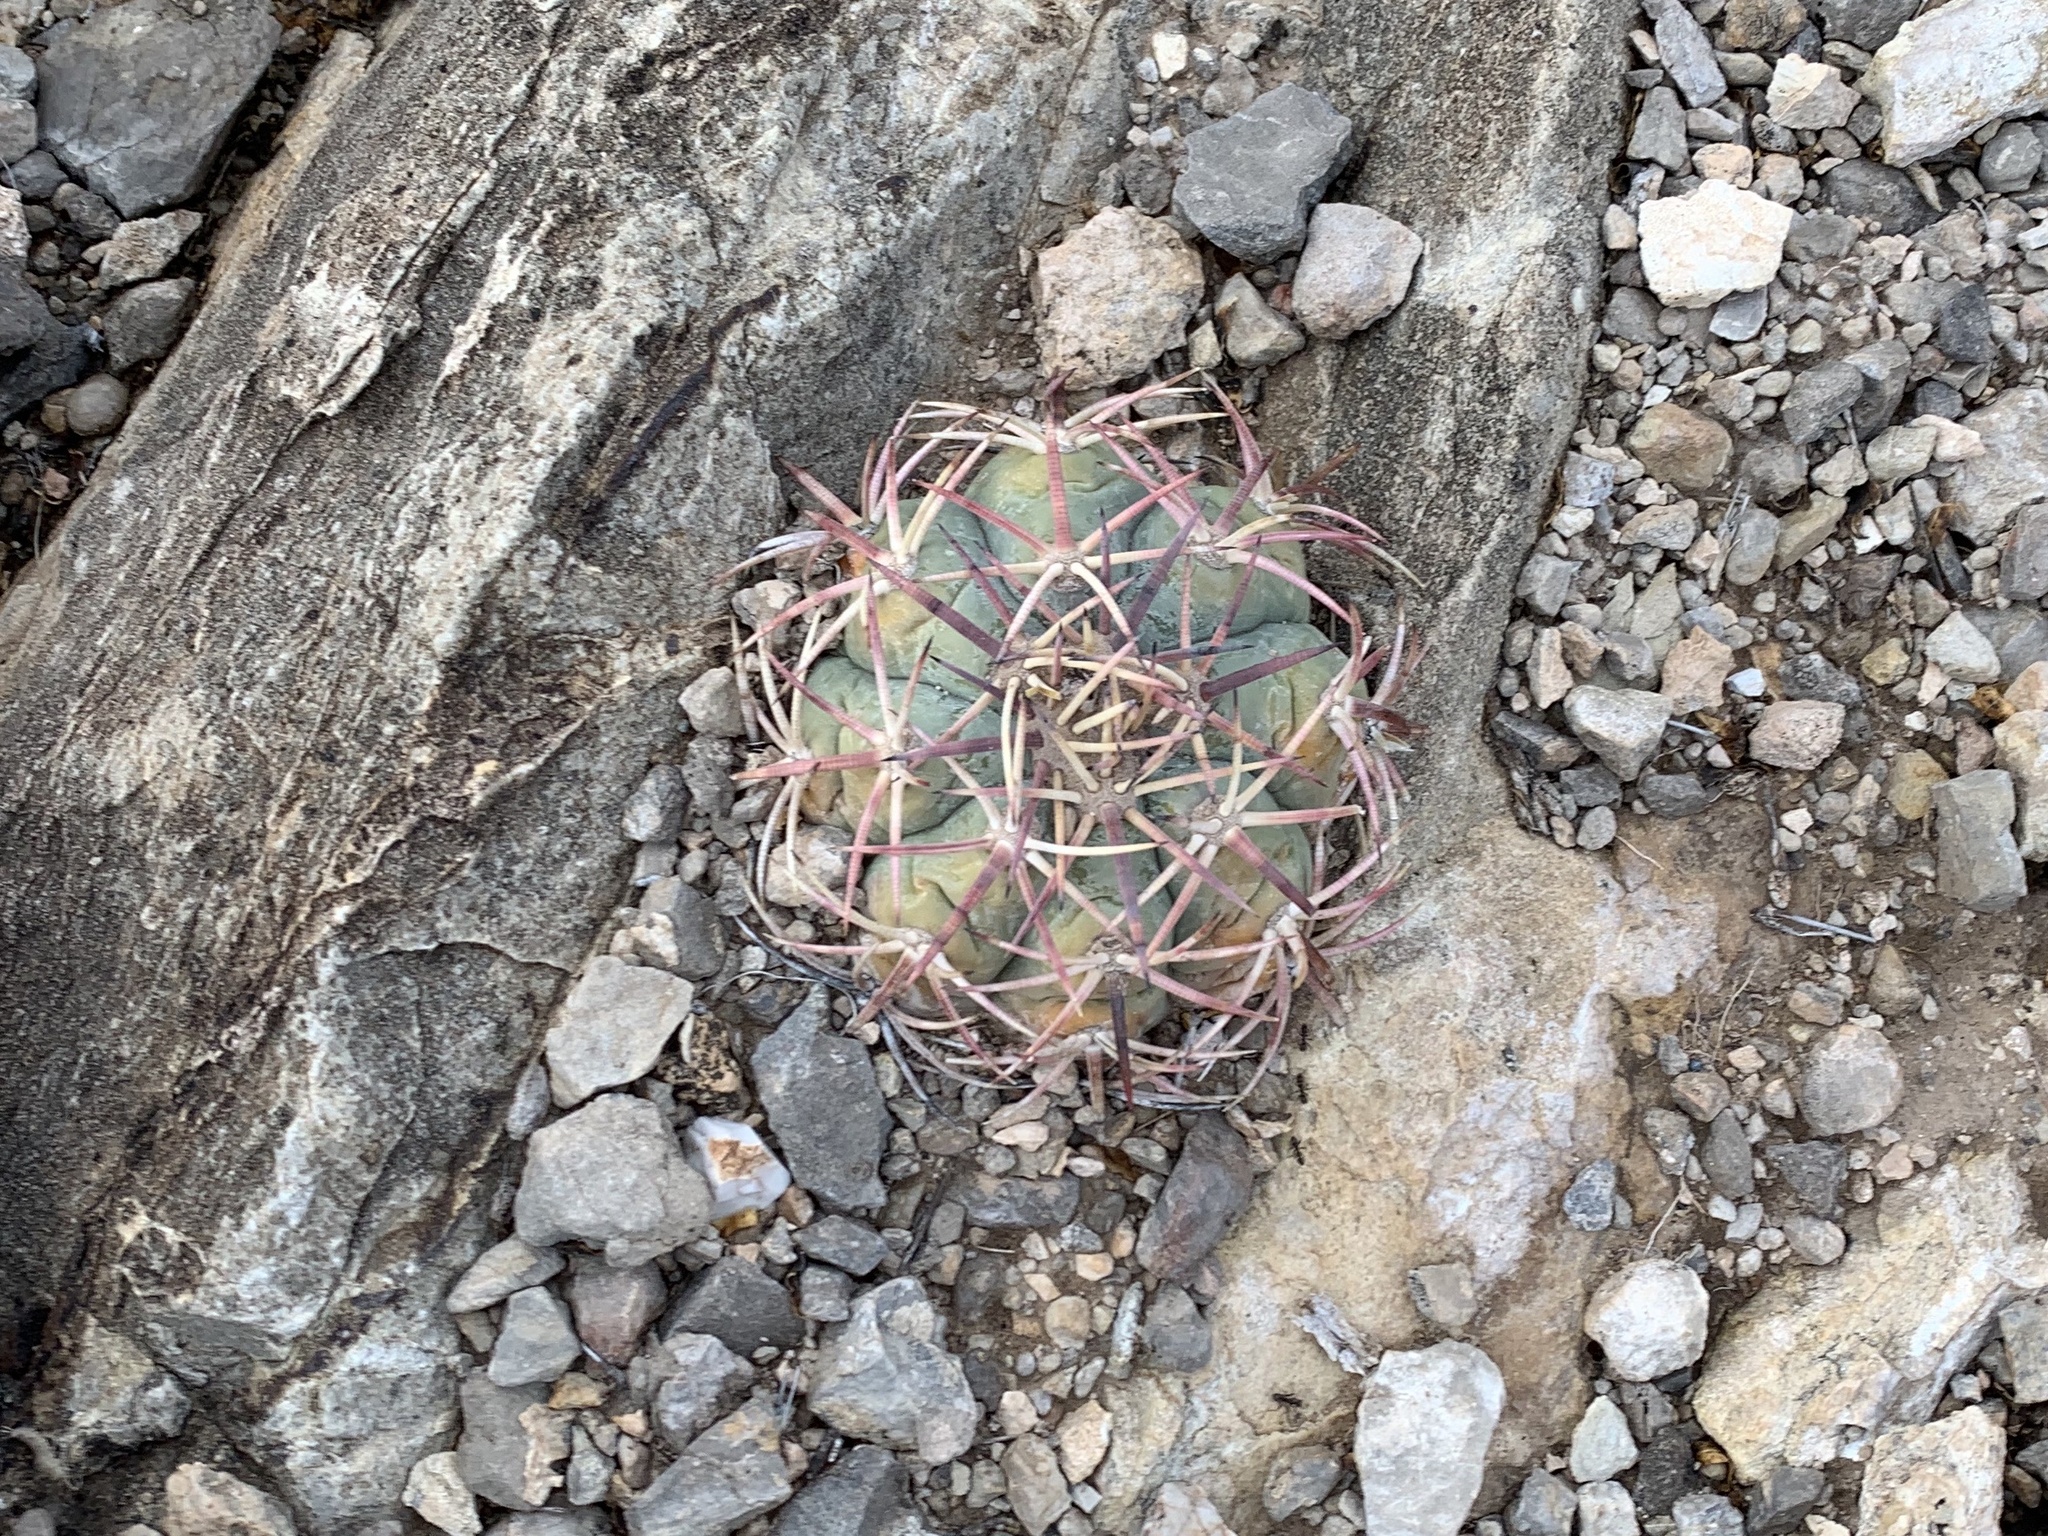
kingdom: Plantae
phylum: Tracheophyta
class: Magnoliopsida
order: Caryophyllales
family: Cactaceae
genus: Echinocactus
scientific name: Echinocactus horizonthalonius
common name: Devilshead
